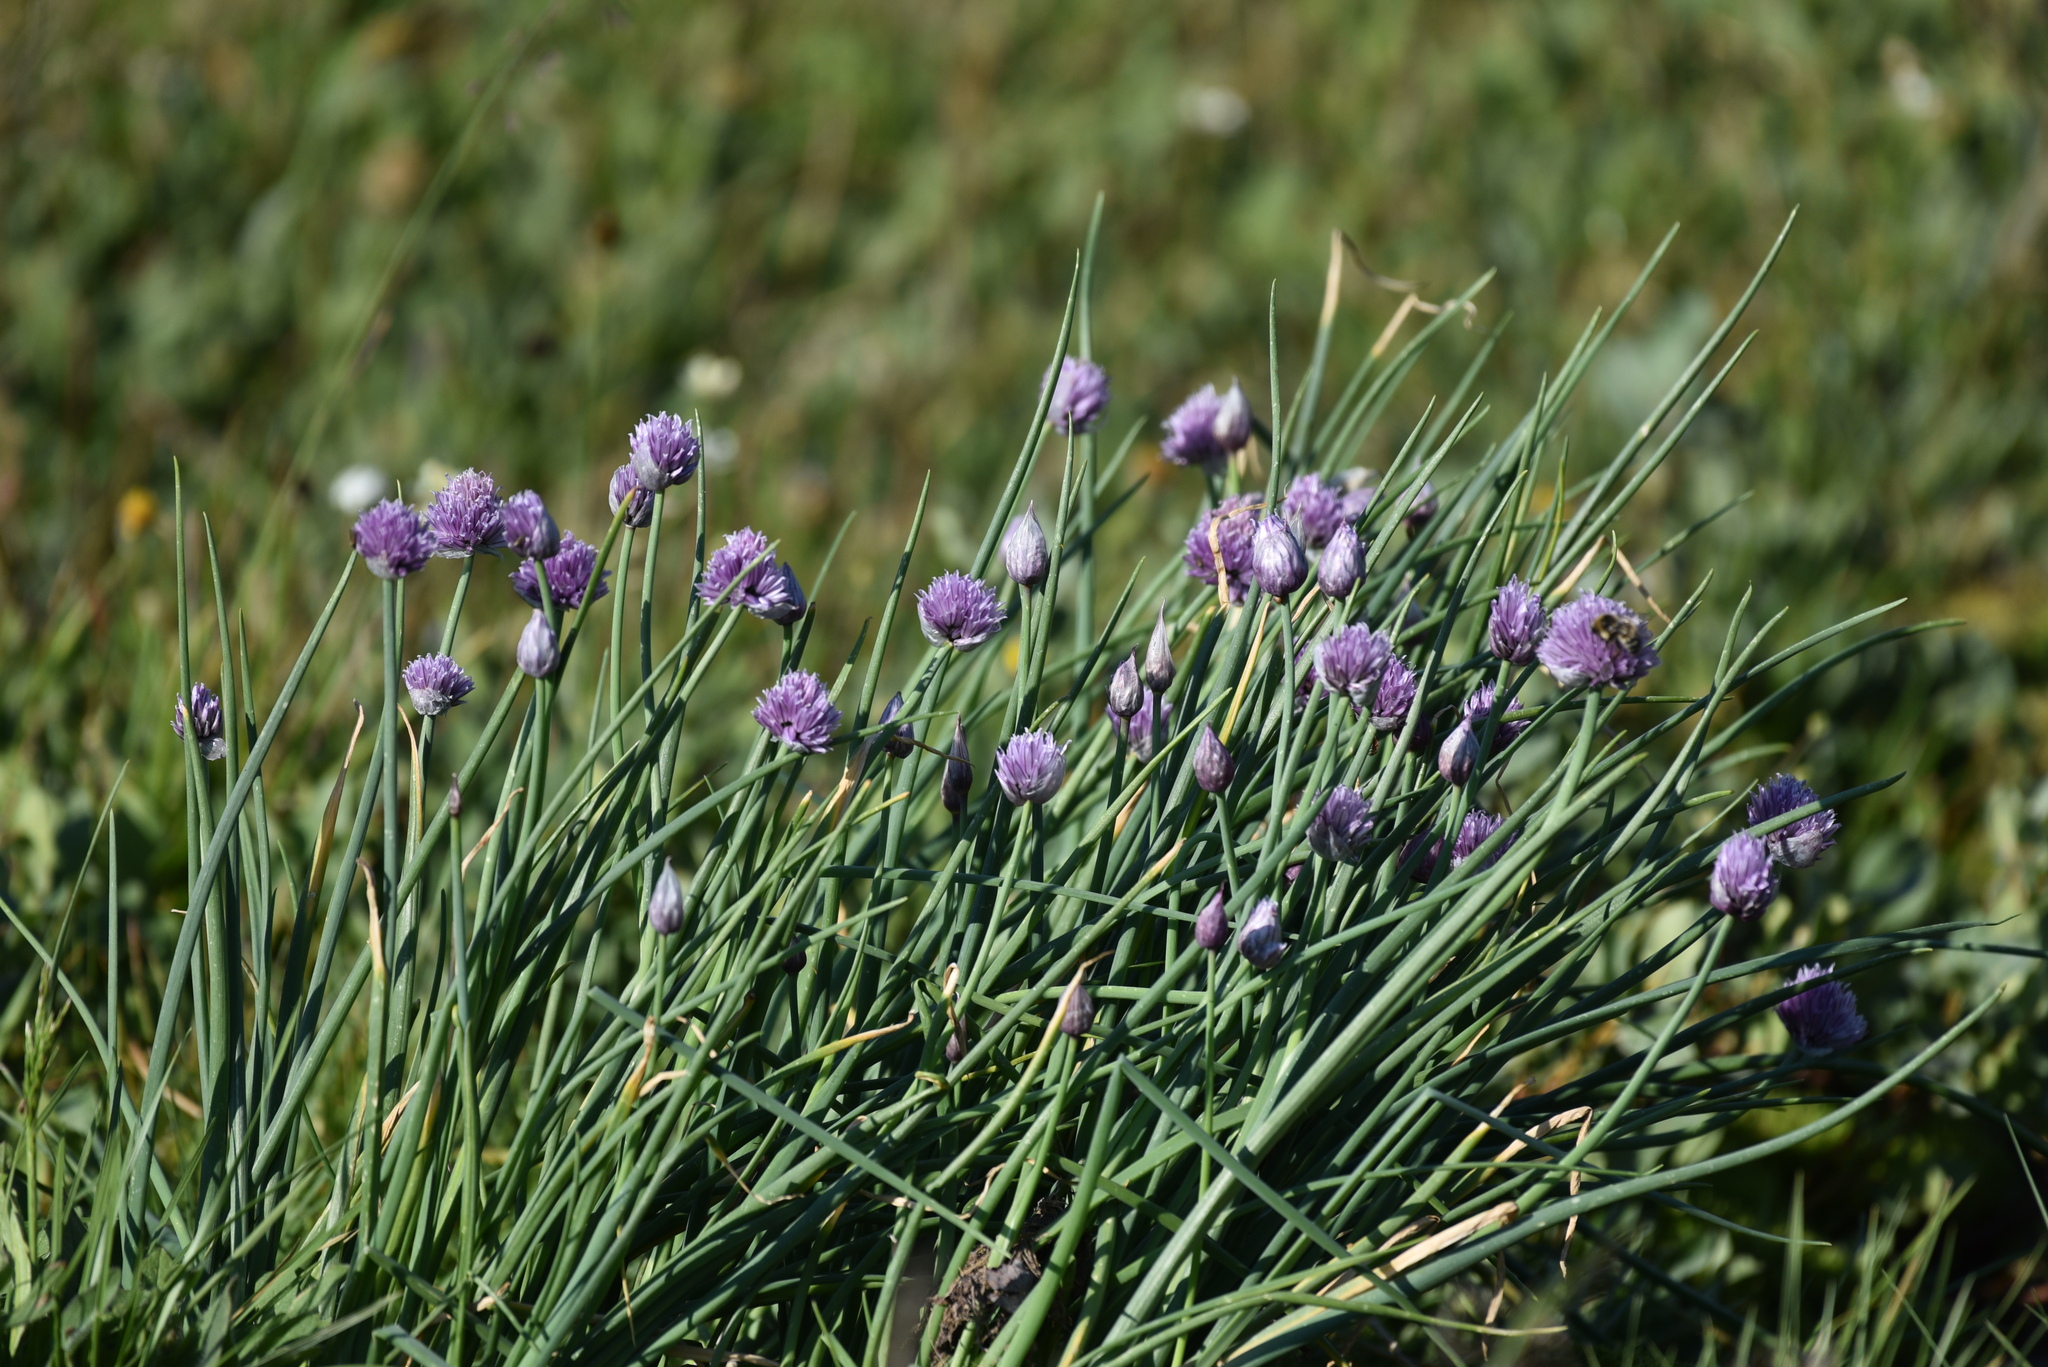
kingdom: Plantae
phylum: Tracheophyta
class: Liliopsida
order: Asparagales
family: Amaryllidaceae
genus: Allium
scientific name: Allium schoenoprasum
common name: Chives
